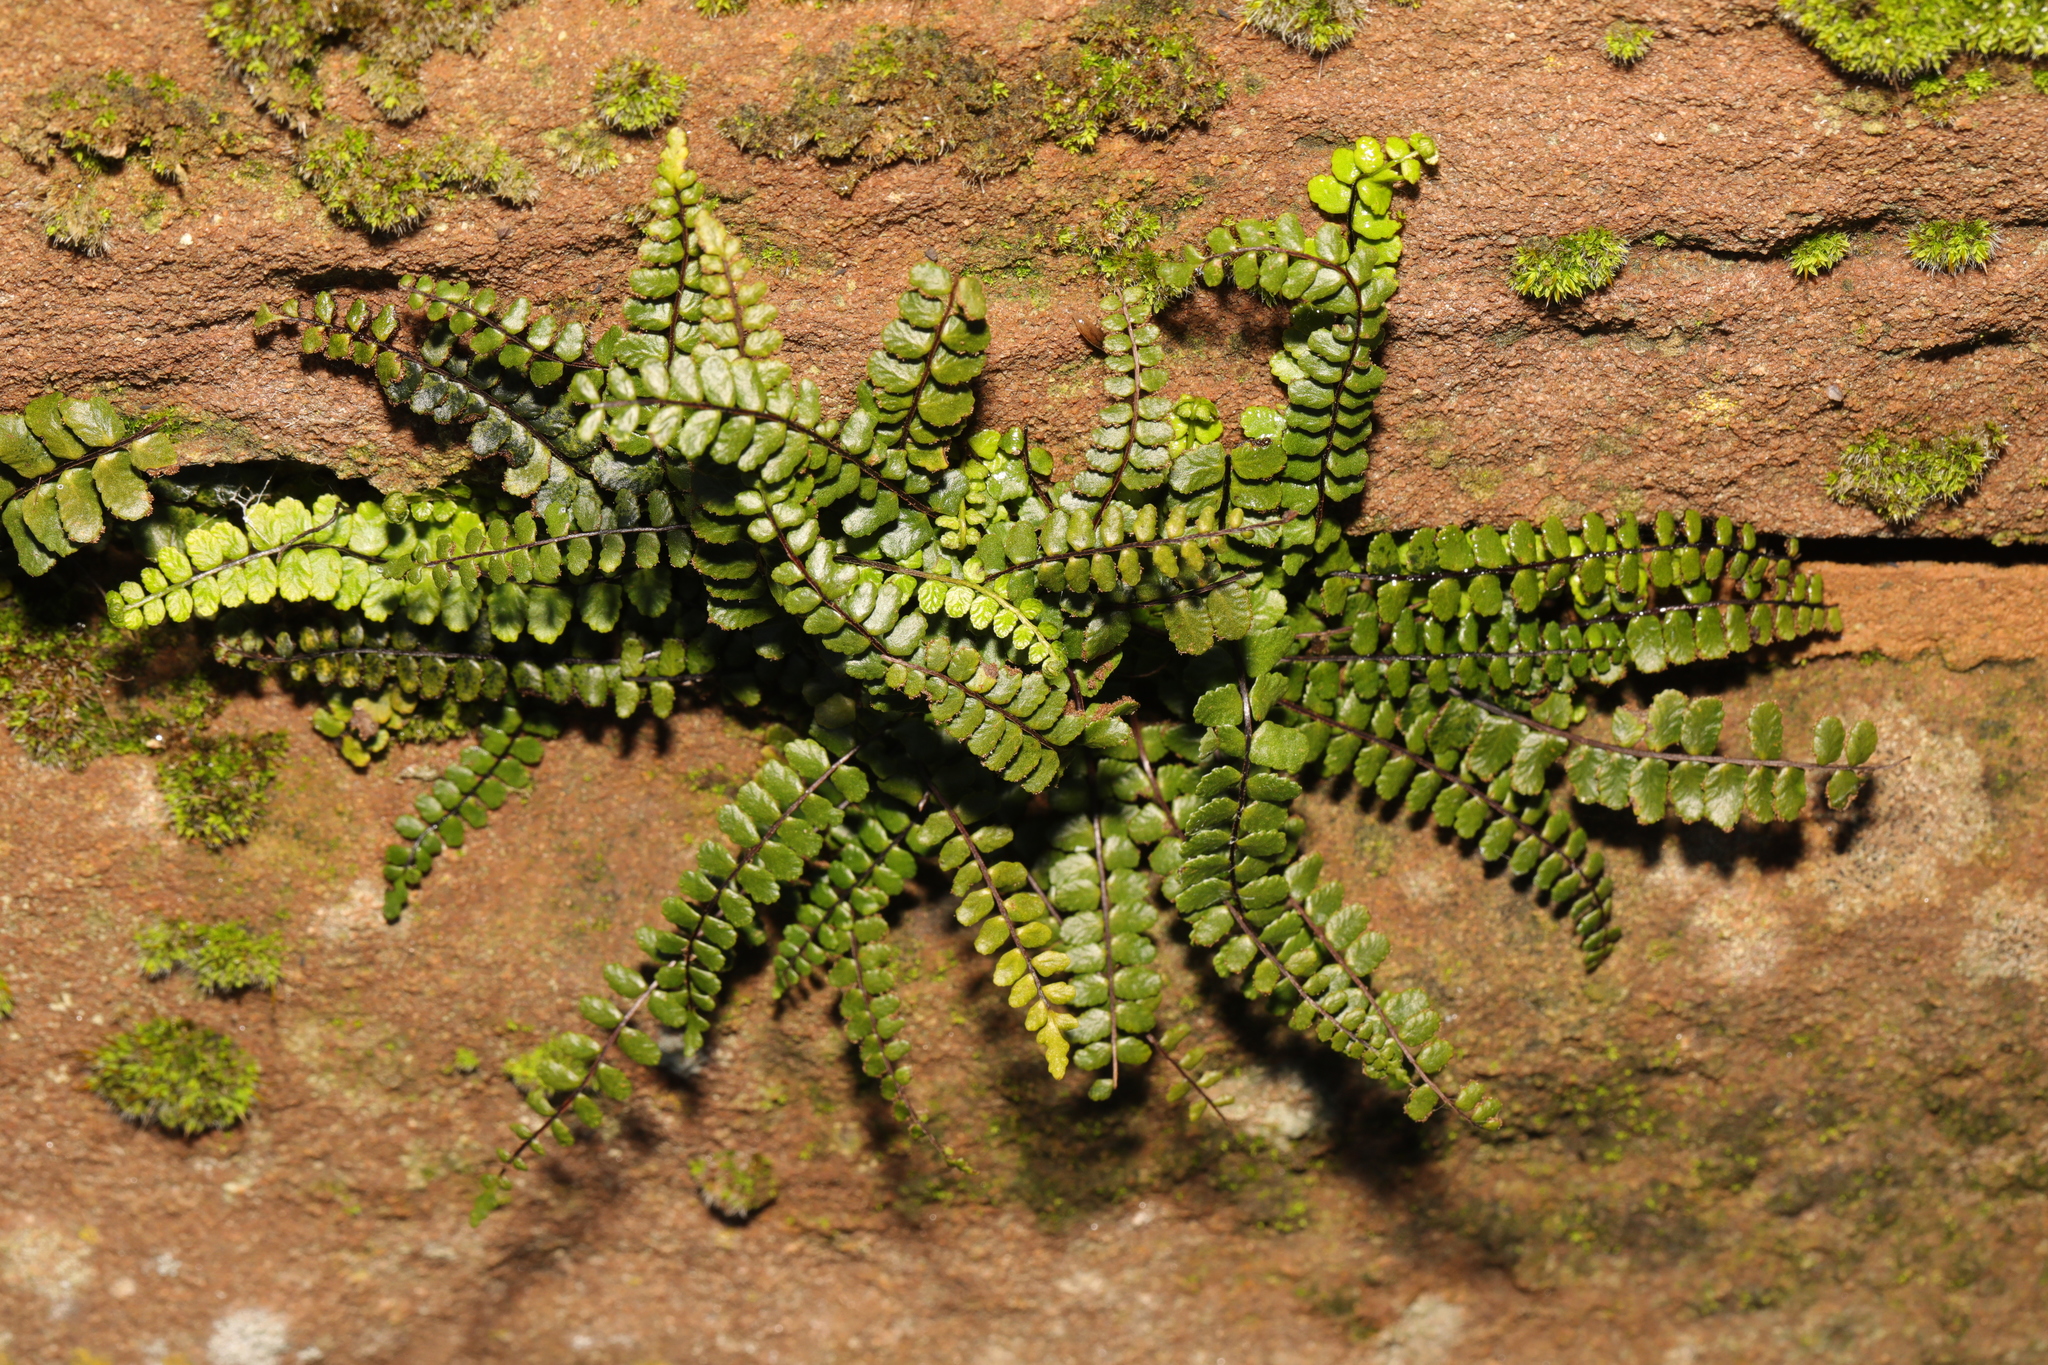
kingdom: Plantae
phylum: Tracheophyta
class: Polypodiopsida
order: Polypodiales
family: Aspleniaceae
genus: Asplenium
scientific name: Asplenium trichomanes
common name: Maidenhair spleenwort
